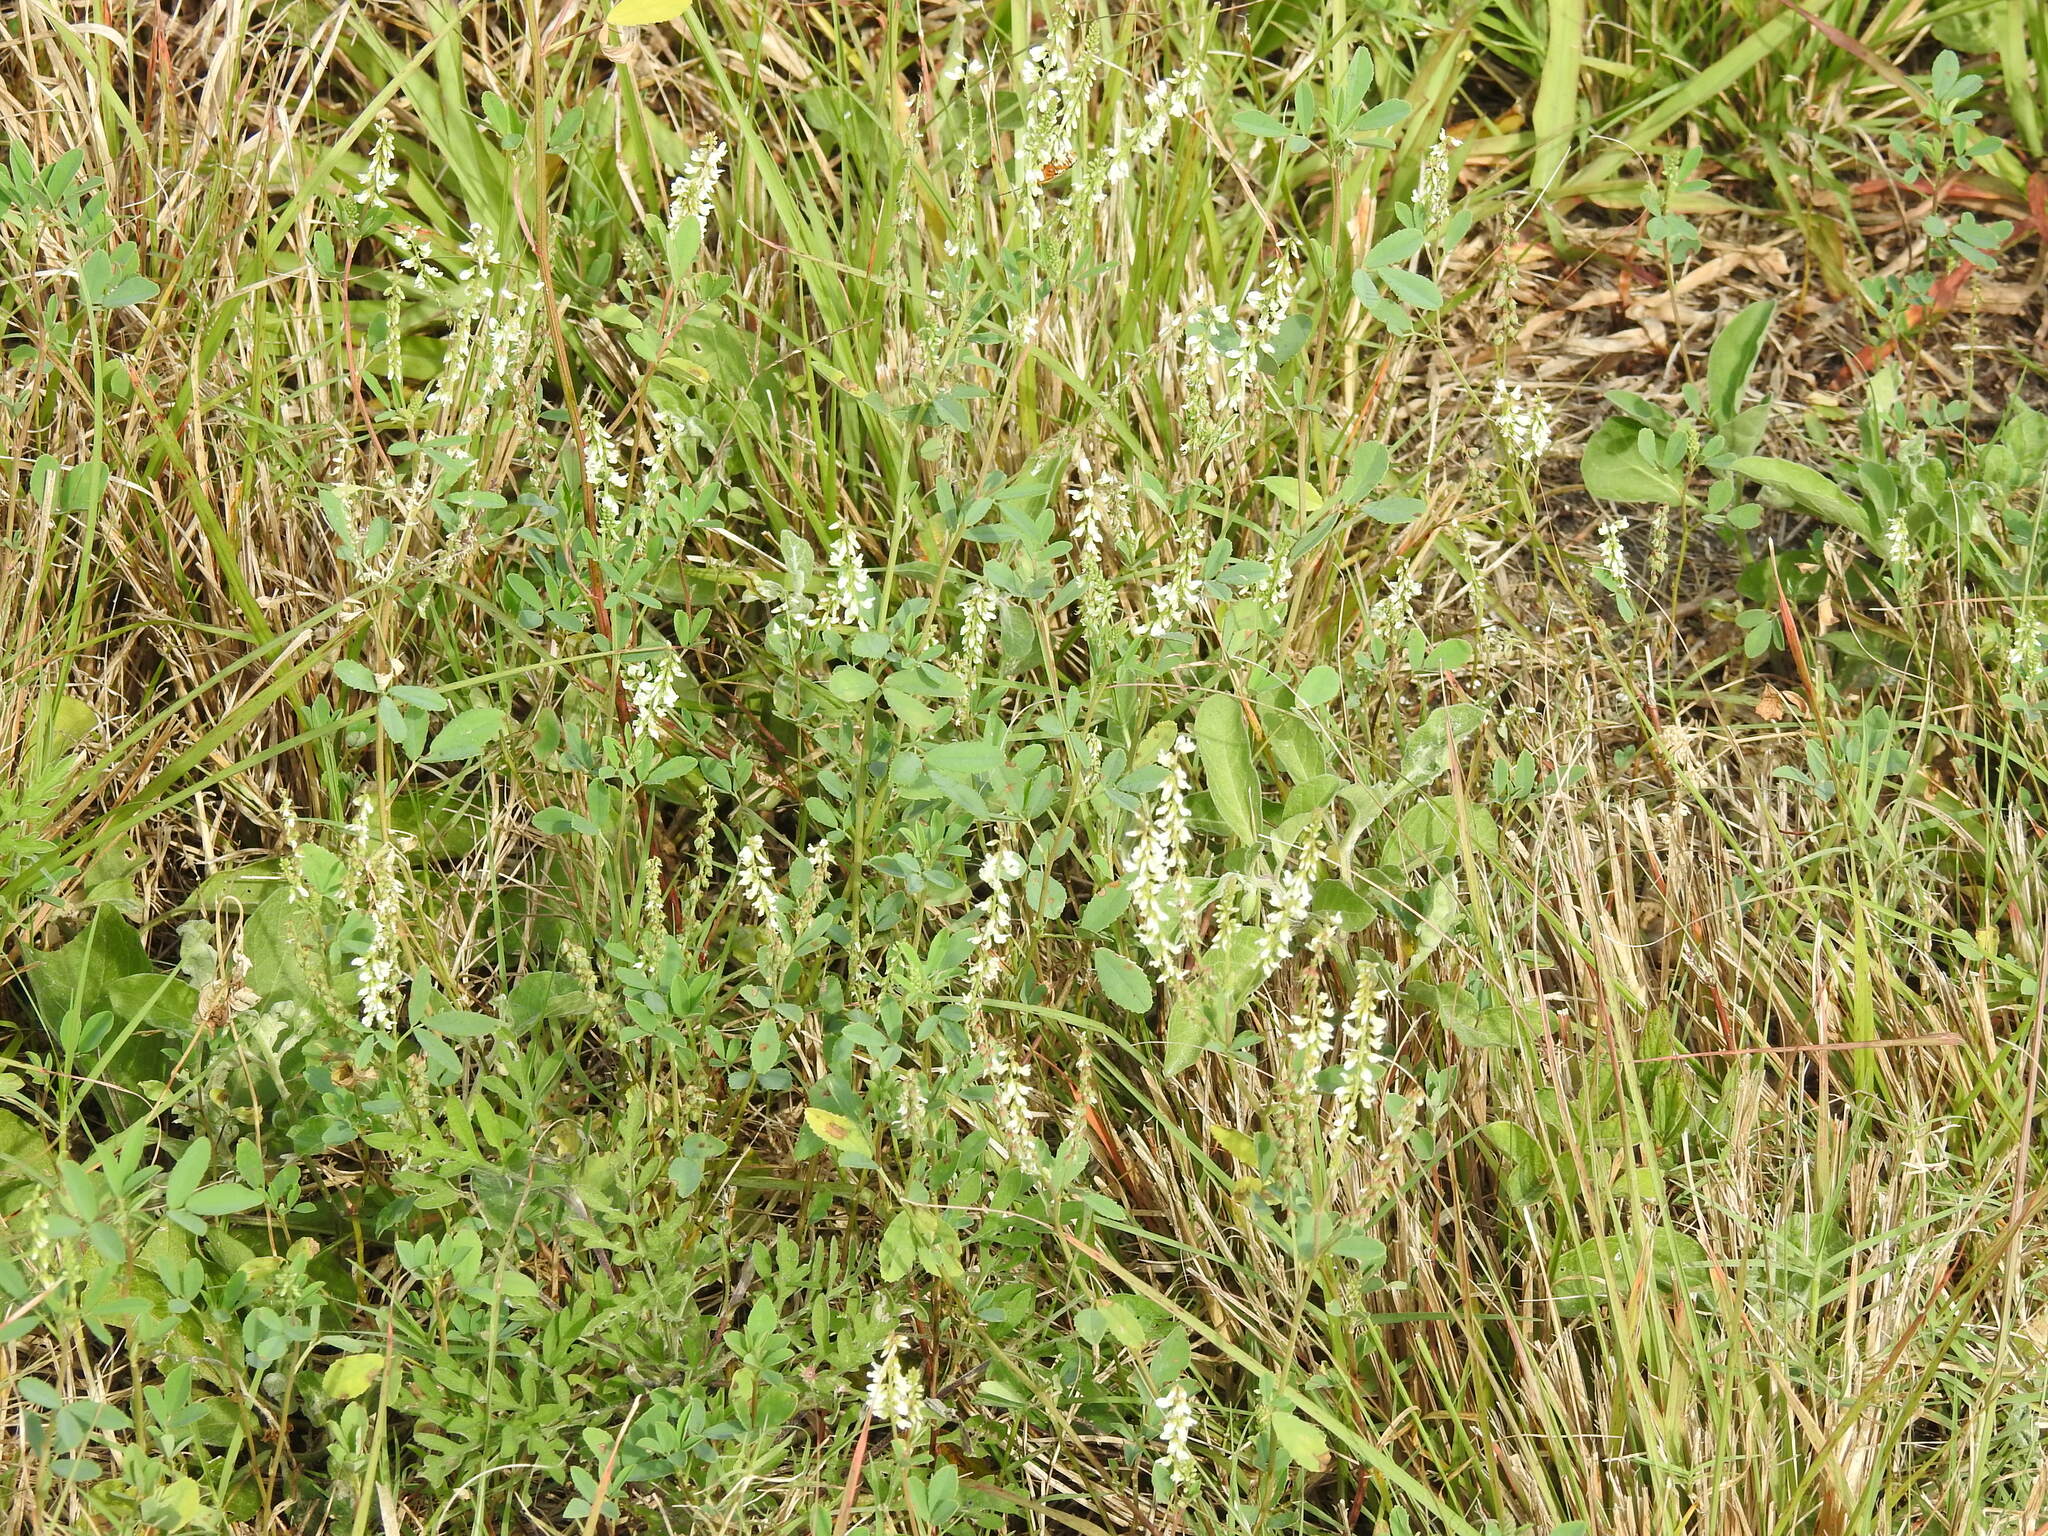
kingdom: Plantae
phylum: Tracheophyta
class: Magnoliopsida
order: Fabales
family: Fabaceae
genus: Melilotus
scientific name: Melilotus albus
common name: White melilot
